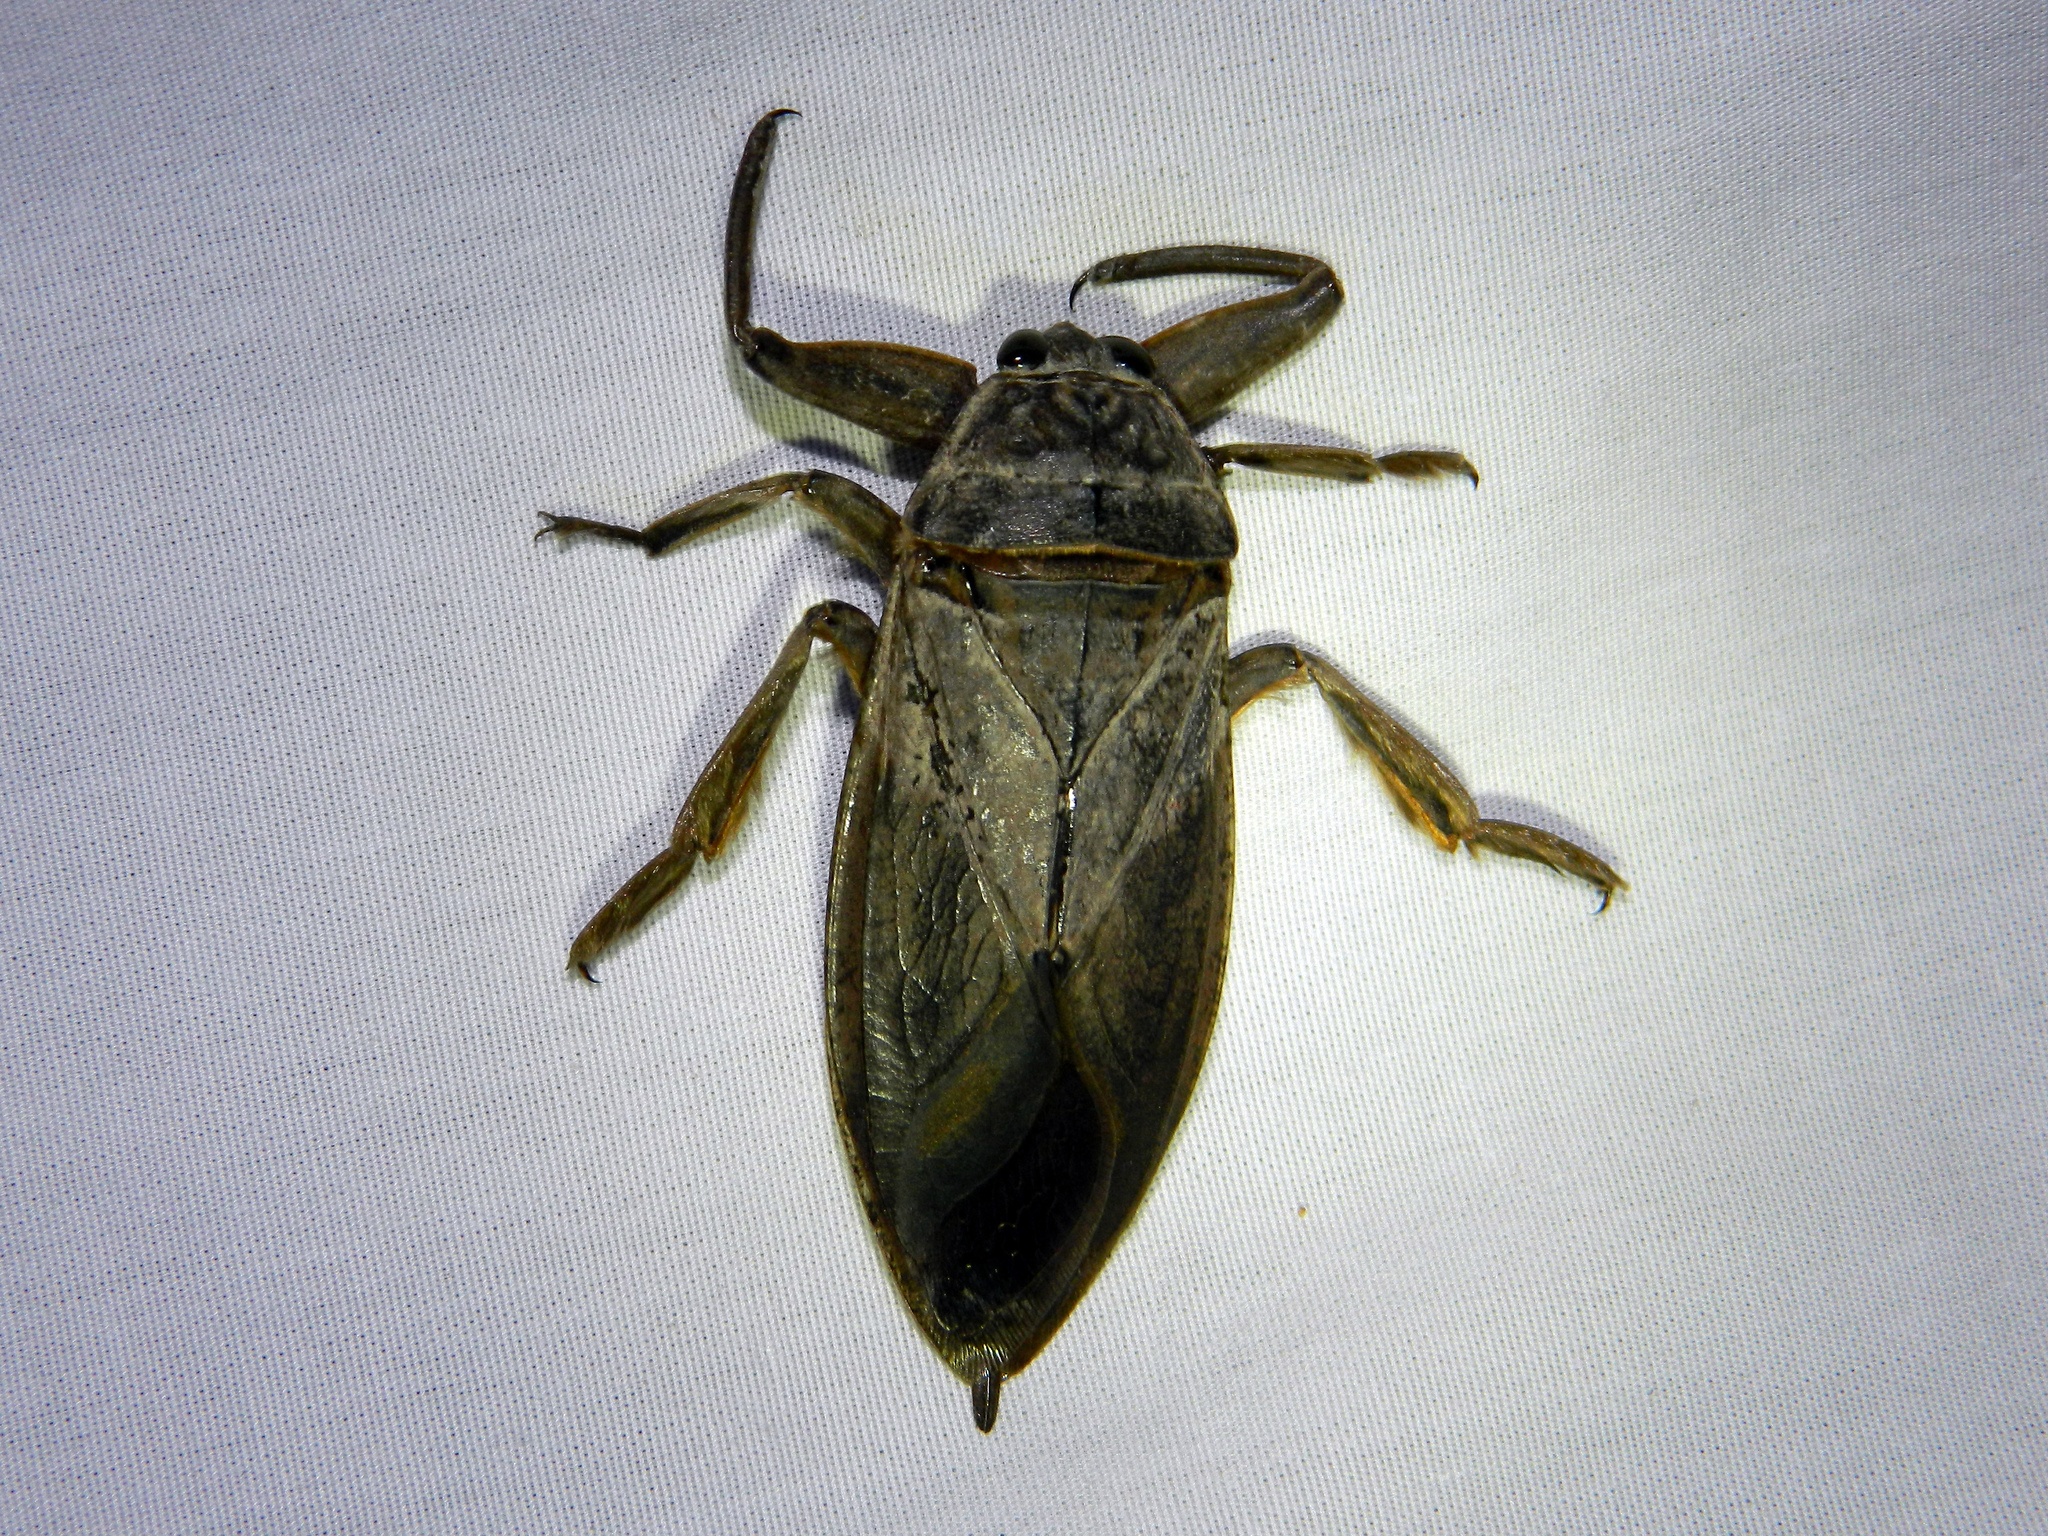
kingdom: Animalia
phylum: Arthropoda
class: Insecta
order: Hemiptera
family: Belostomatidae
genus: Lethocerus
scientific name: Lethocerus americanus
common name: Giant water bug
